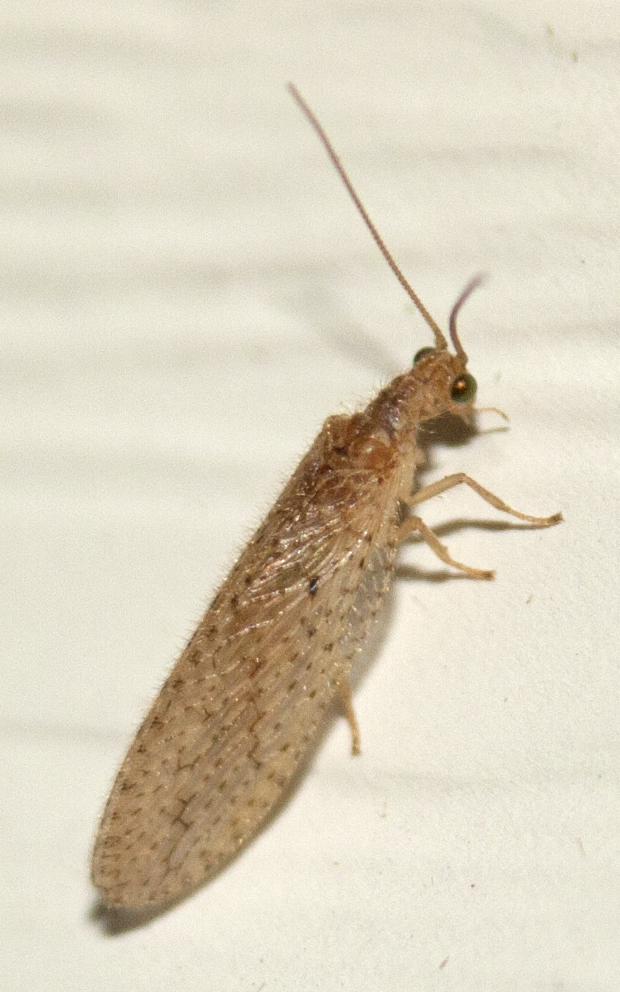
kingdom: Animalia
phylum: Arthropoda
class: Insecta
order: Neuroptera
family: Hemerobiidae
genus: Micromus
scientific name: Micromus tasmaniae
